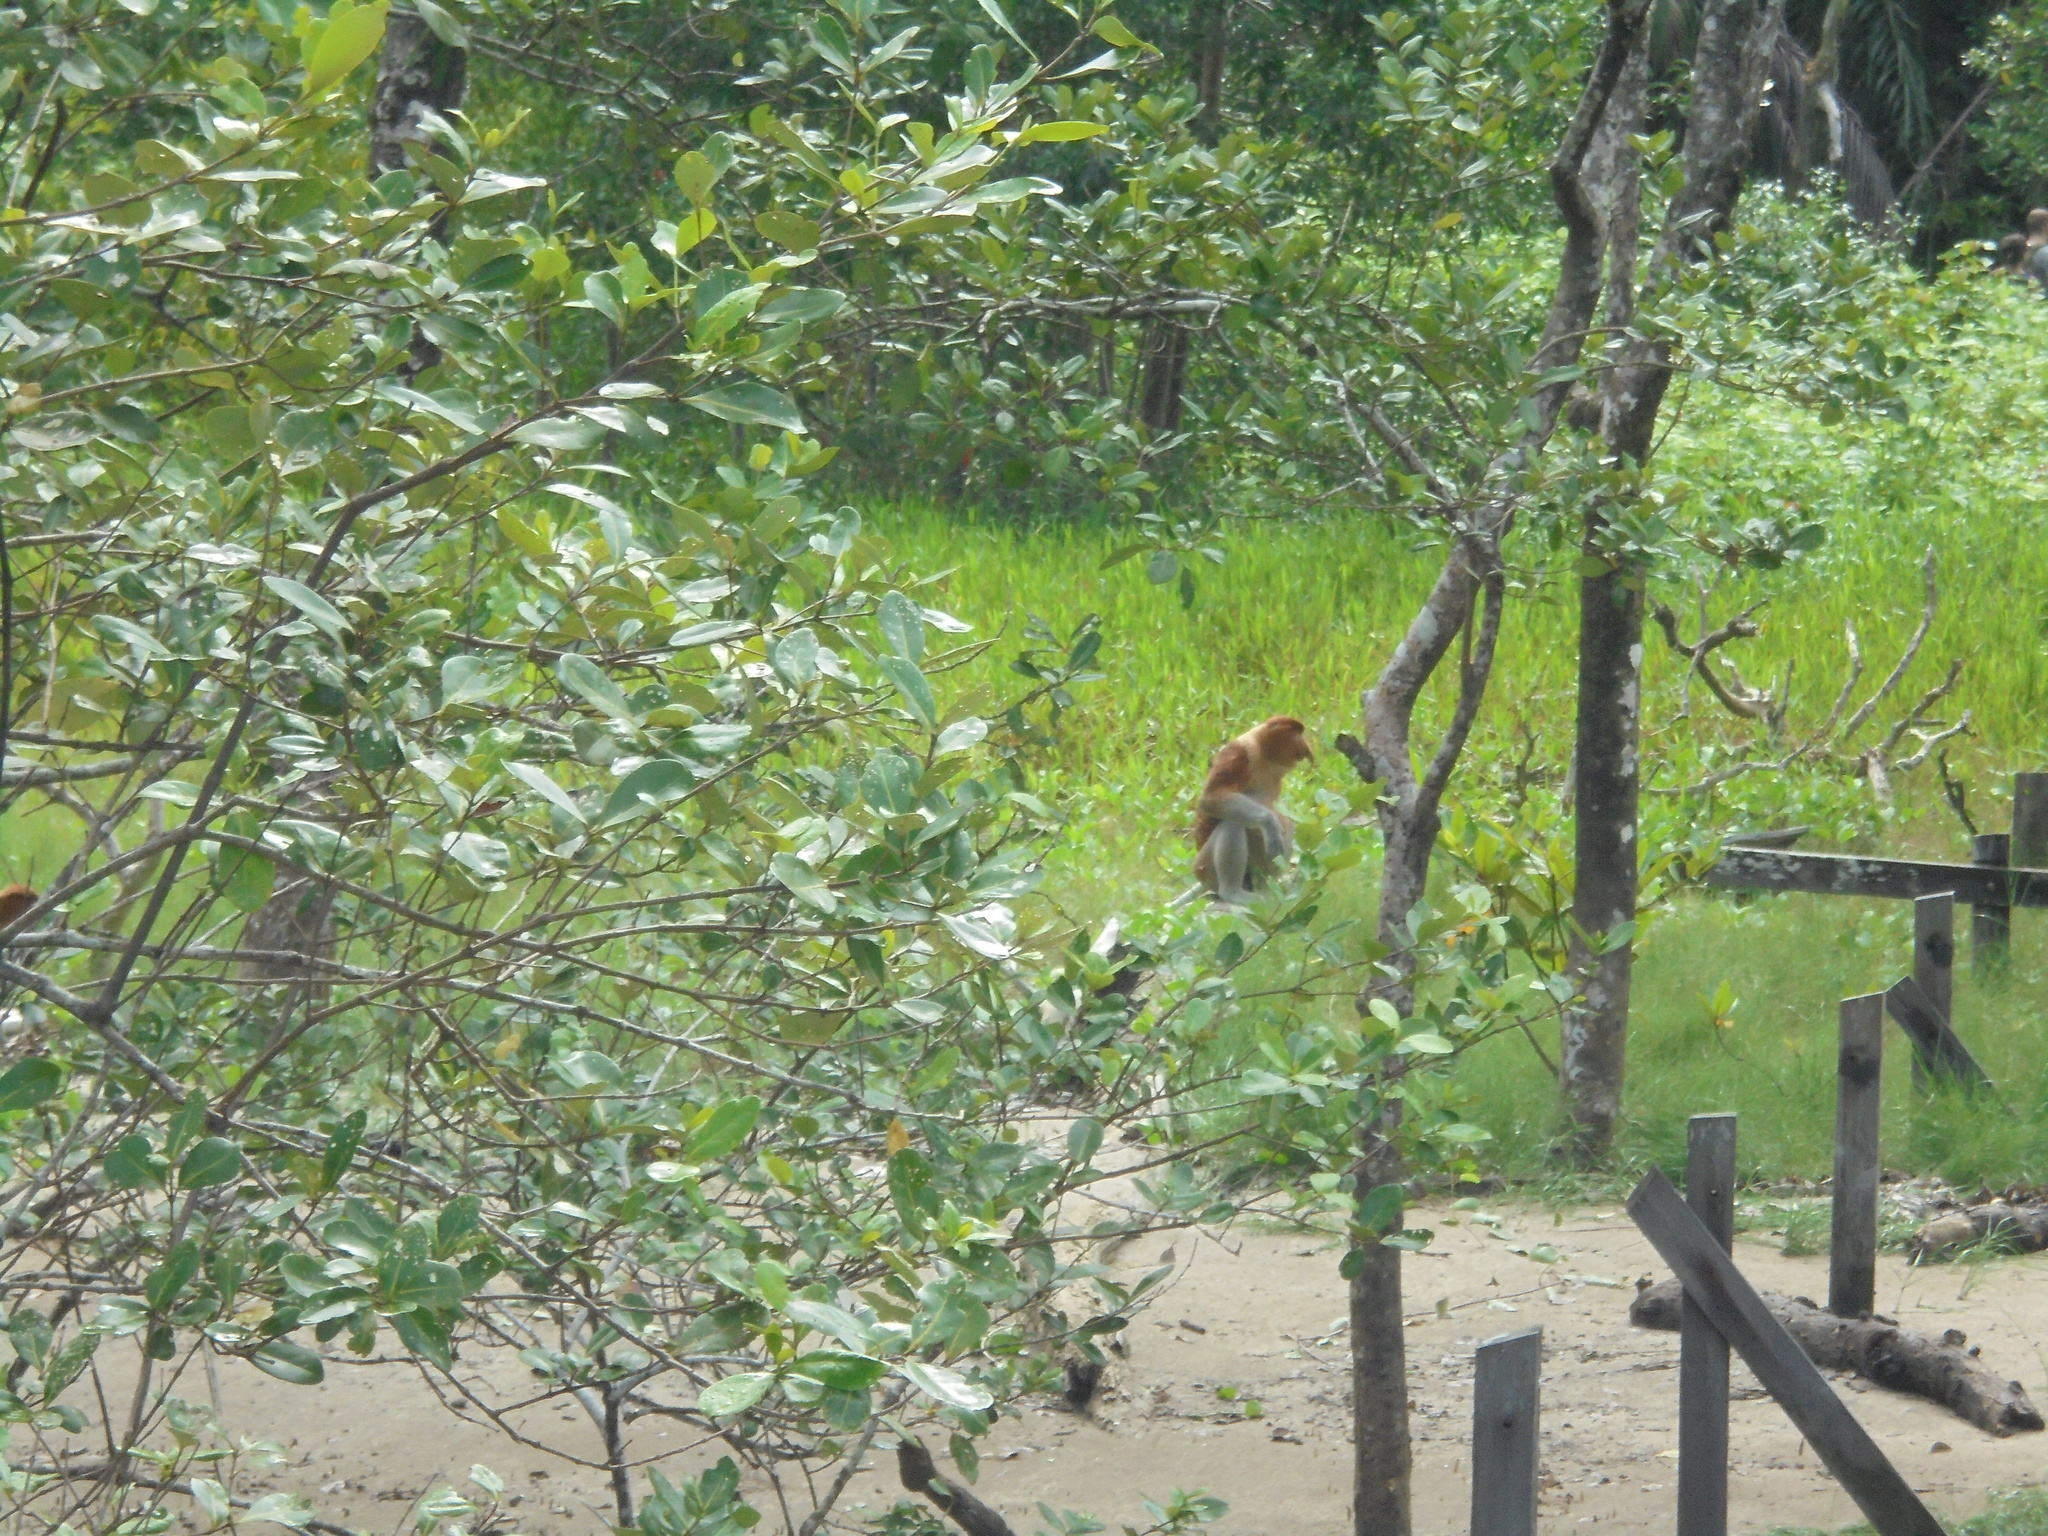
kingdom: Animalia
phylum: Chordata
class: Mammalia
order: Primates
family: Cercopithecidae
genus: Nasalis
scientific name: Nasalis larvatus
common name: Proboscis monkey
